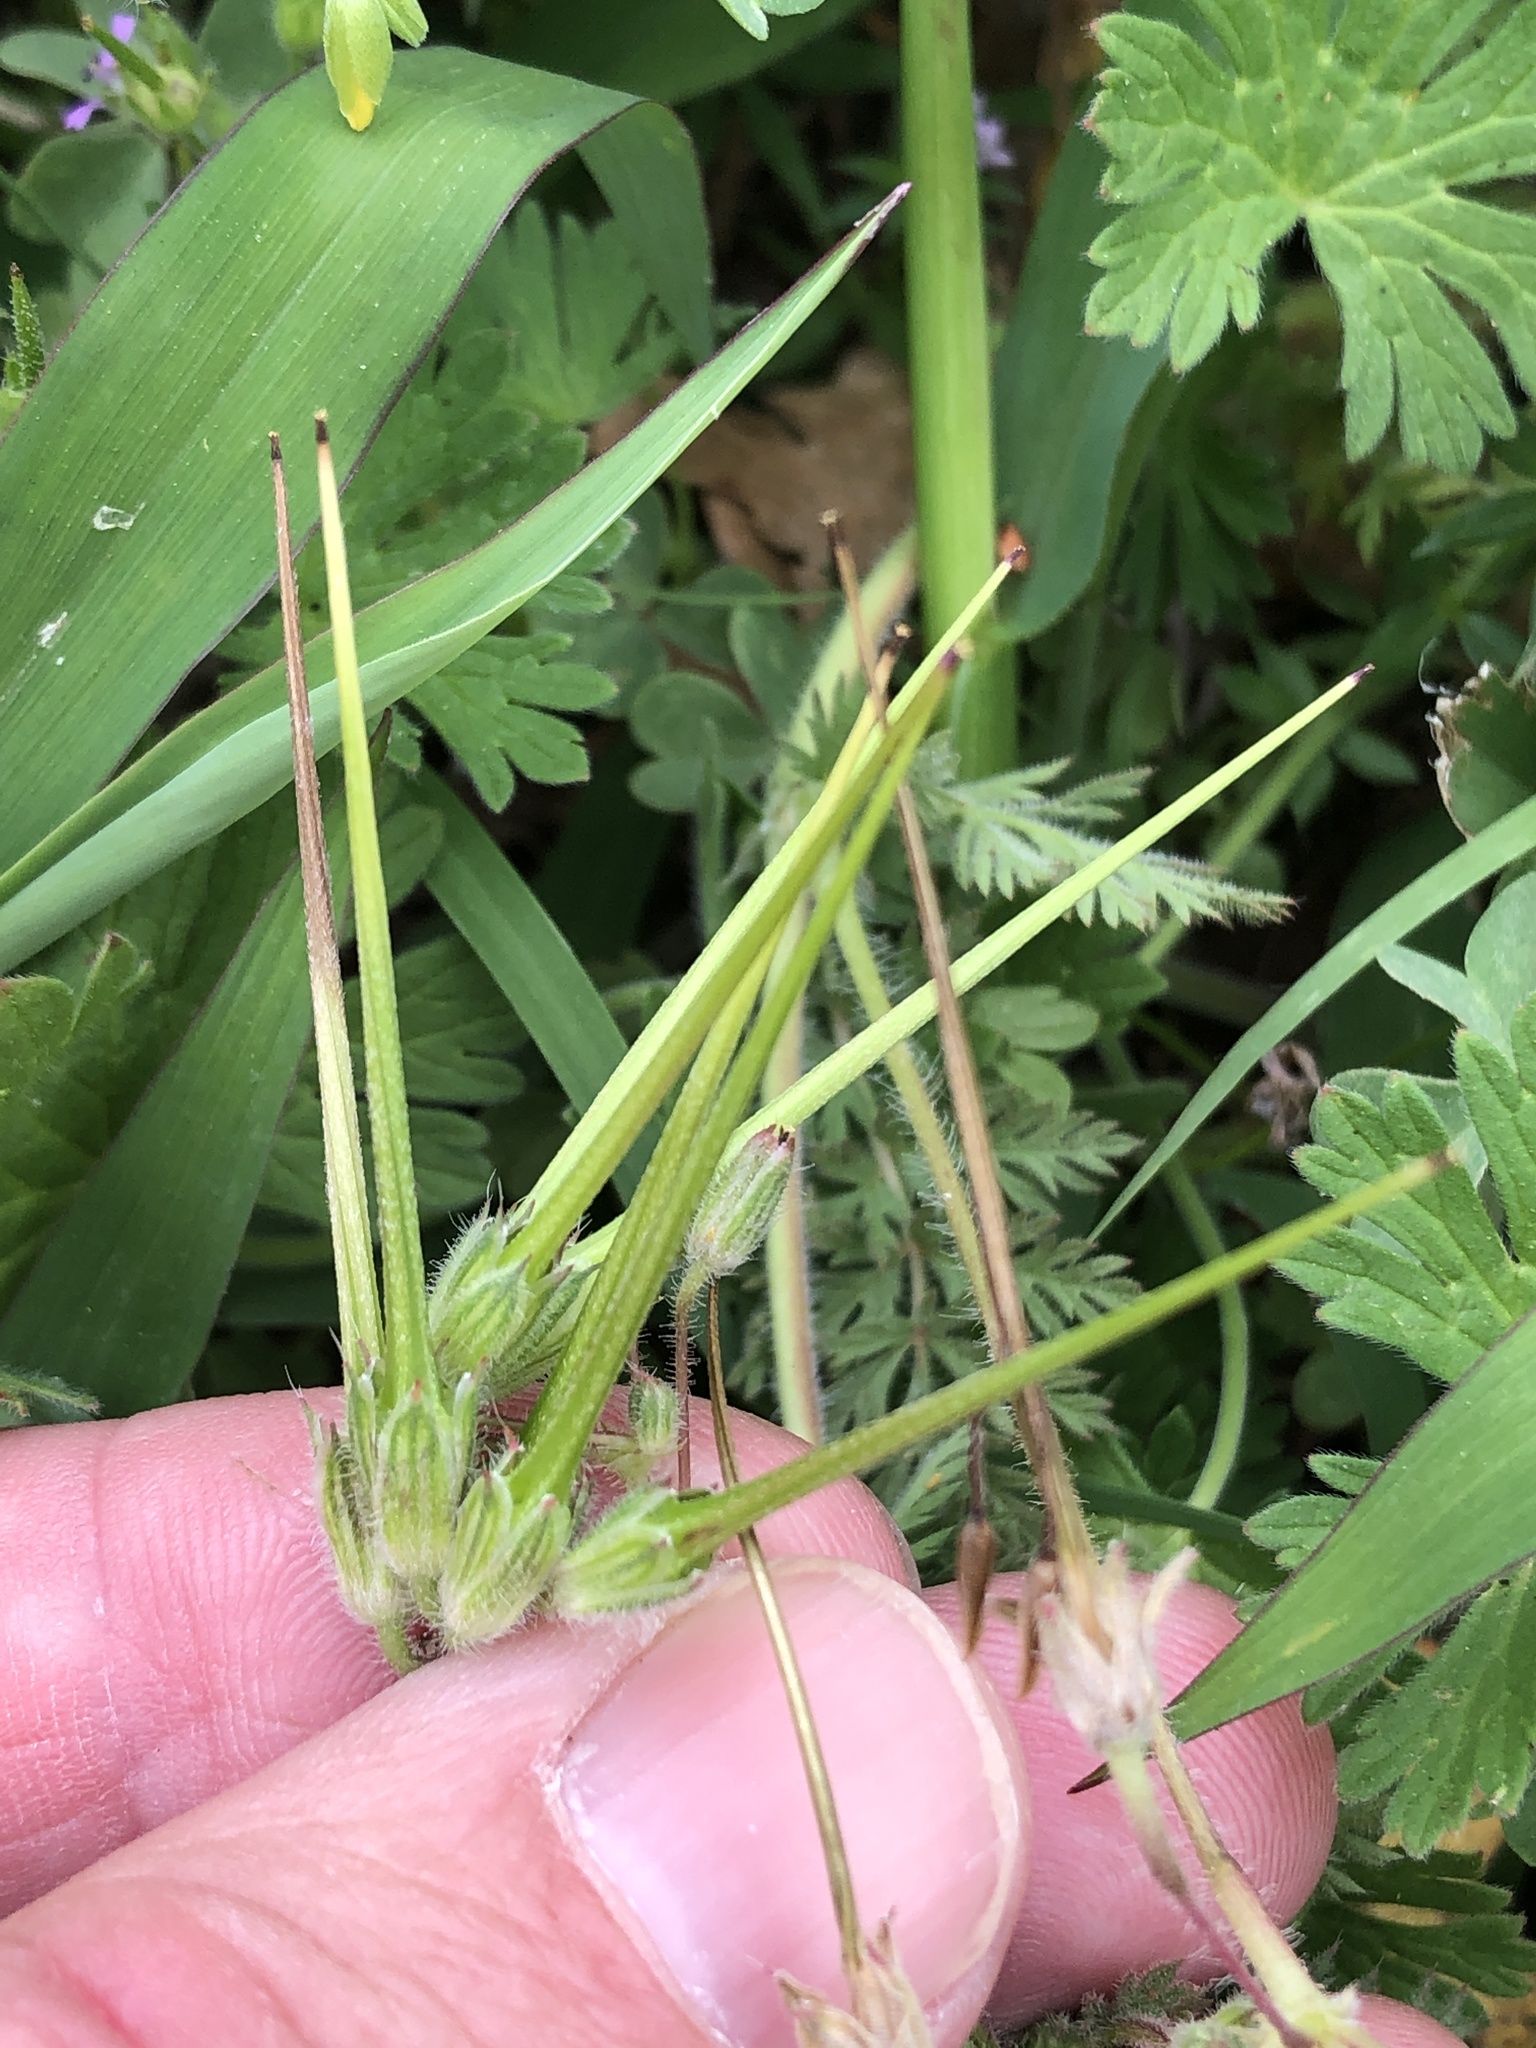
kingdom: Plantae
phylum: Tracheophyta
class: Magnoliopsida
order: Geraniales
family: Geraniaceae
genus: Erodium
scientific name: Erodium cicutarium
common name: Common stork's-bill
